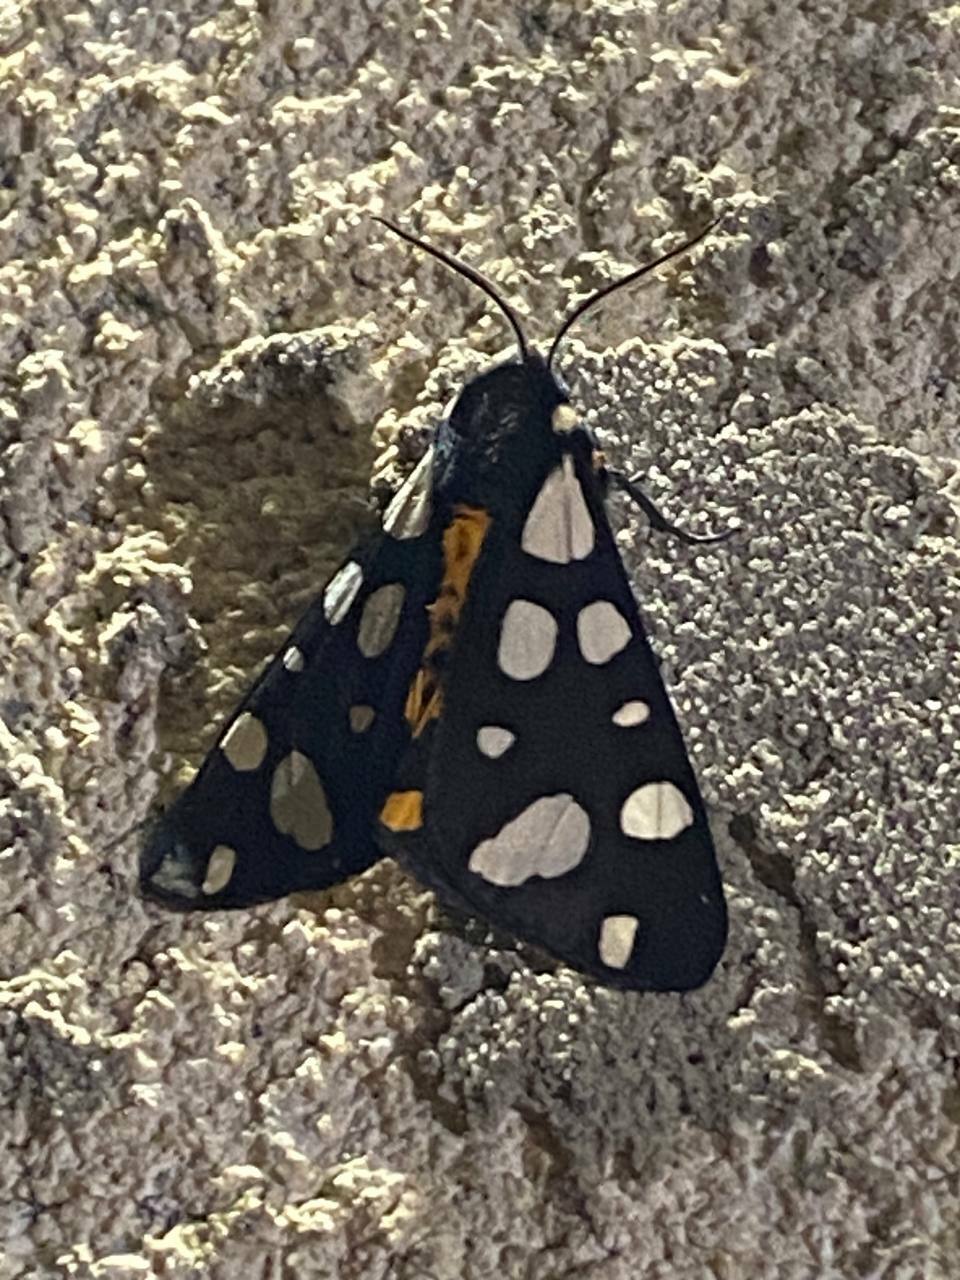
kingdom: Animalia
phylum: Arthropoda
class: Insecta
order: Lepidoptera
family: Erebidae
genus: Epicallia
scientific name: Epicallia villica
